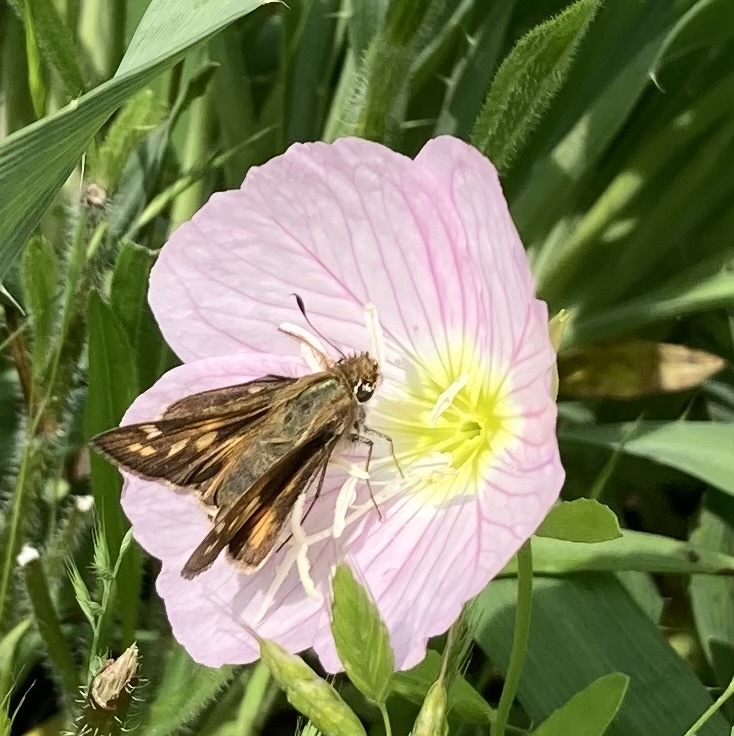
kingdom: Animalia
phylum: Arthropoda
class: Insecta
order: Lepidoptera
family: Hesperiidae
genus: Atalopedes
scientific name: Atalopedes
